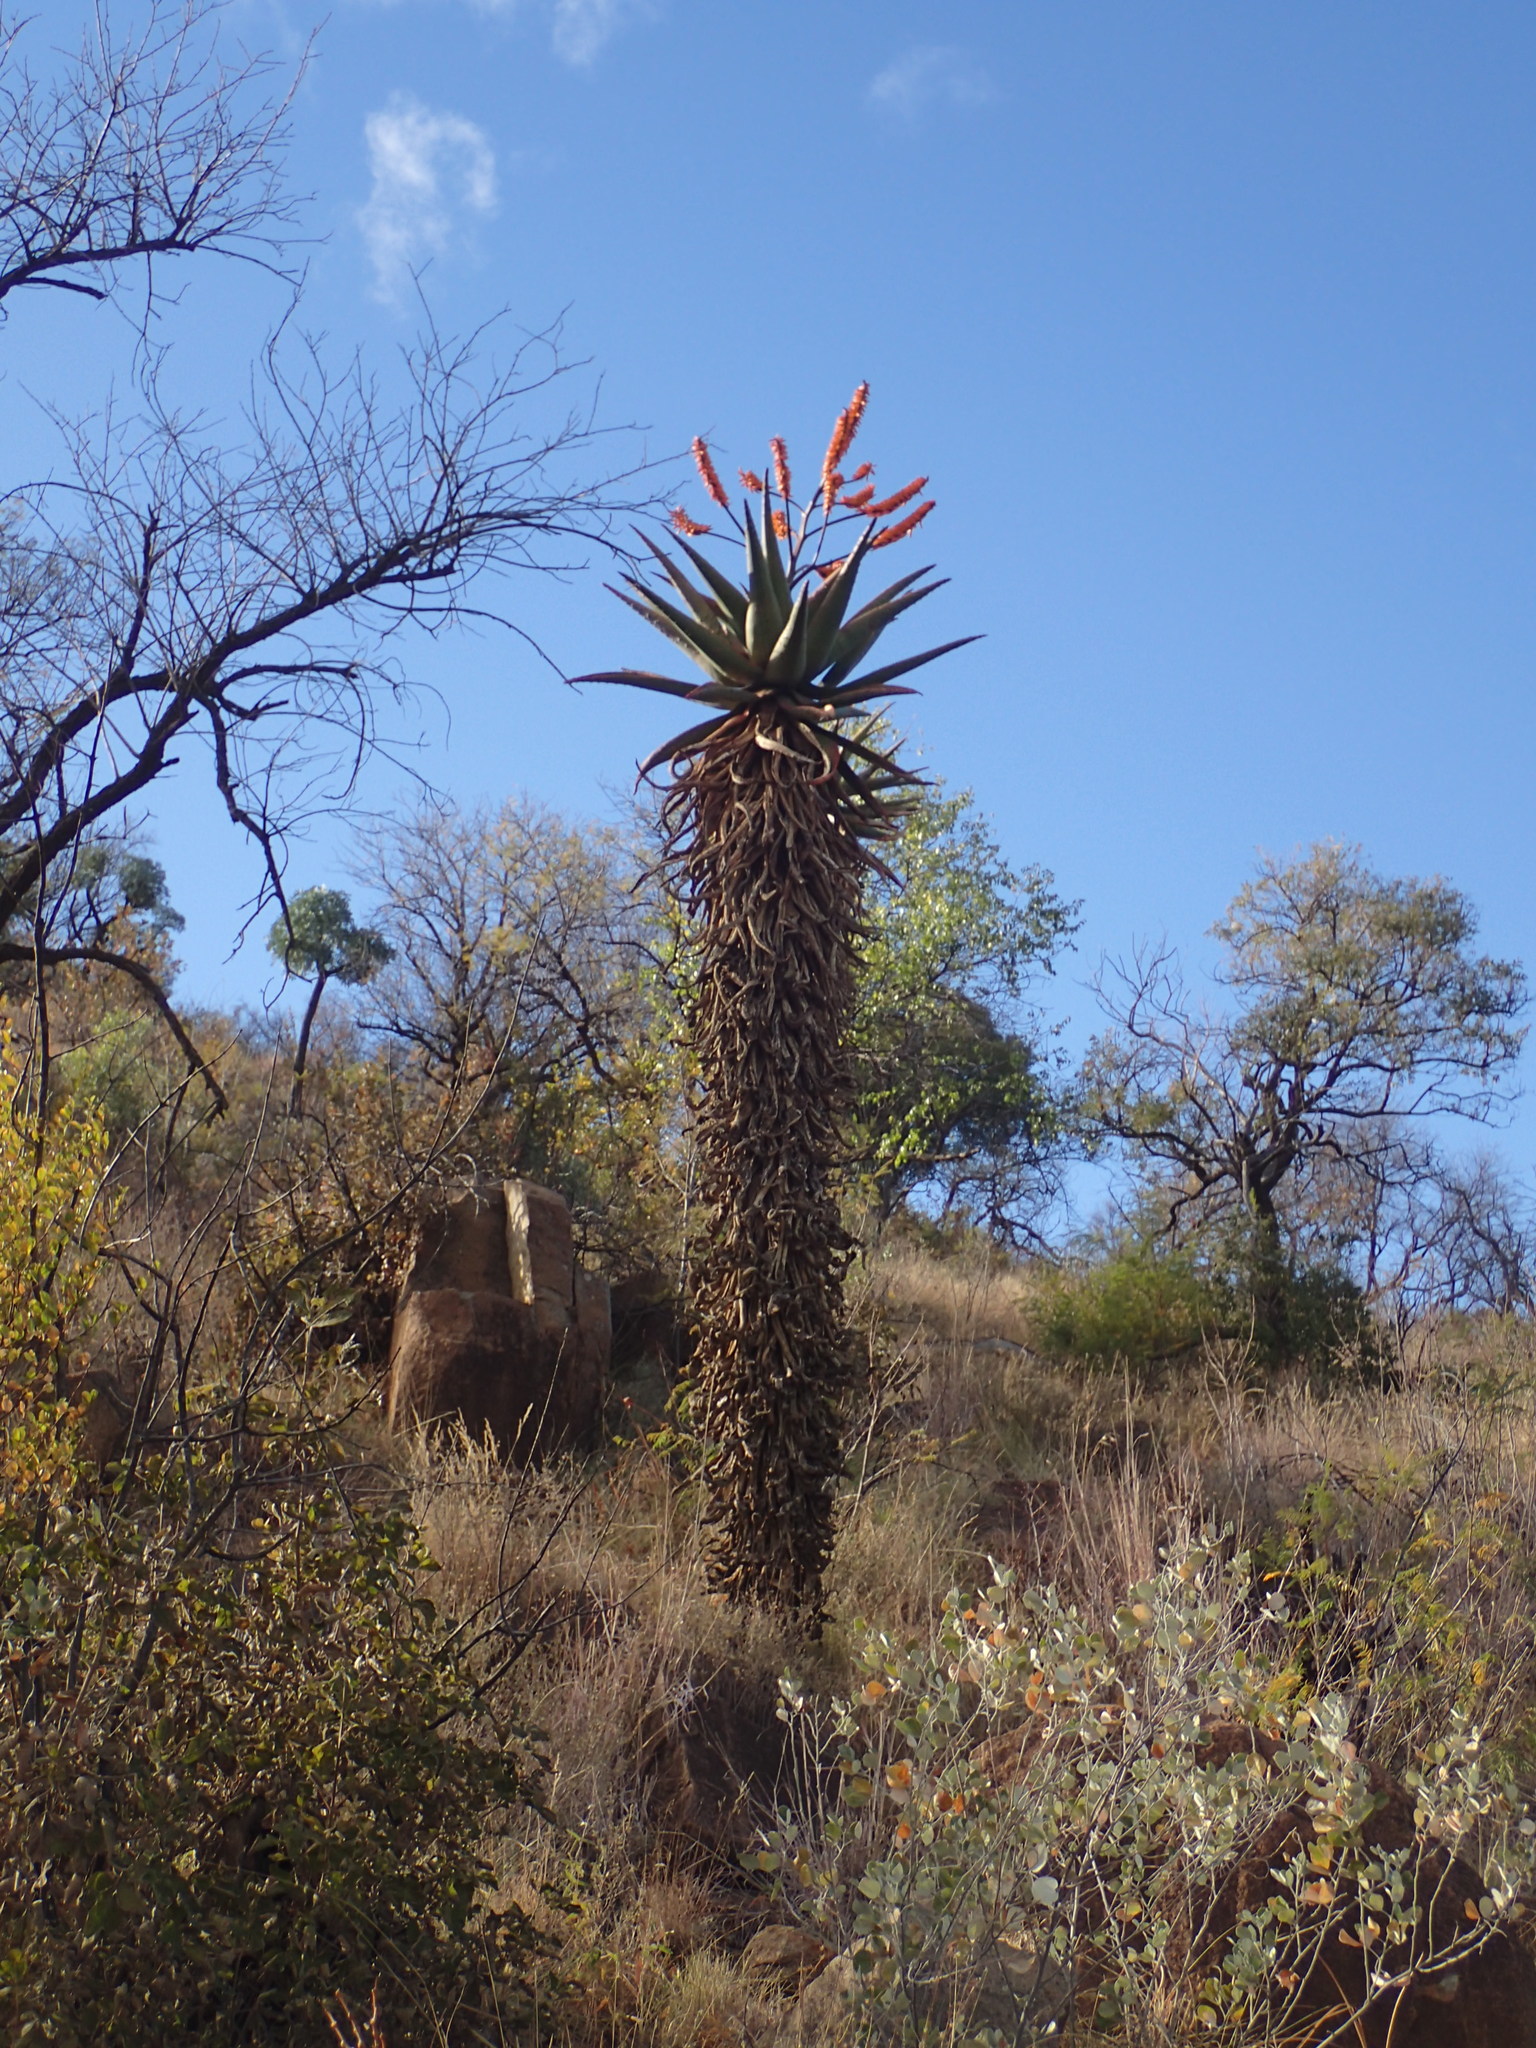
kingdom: Plantae
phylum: Tracheophyta
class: Liliopsida
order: Asparagales
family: Asphodelaceae
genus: Aloe
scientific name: Aloe marlothii
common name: Flat-flowered aloe
